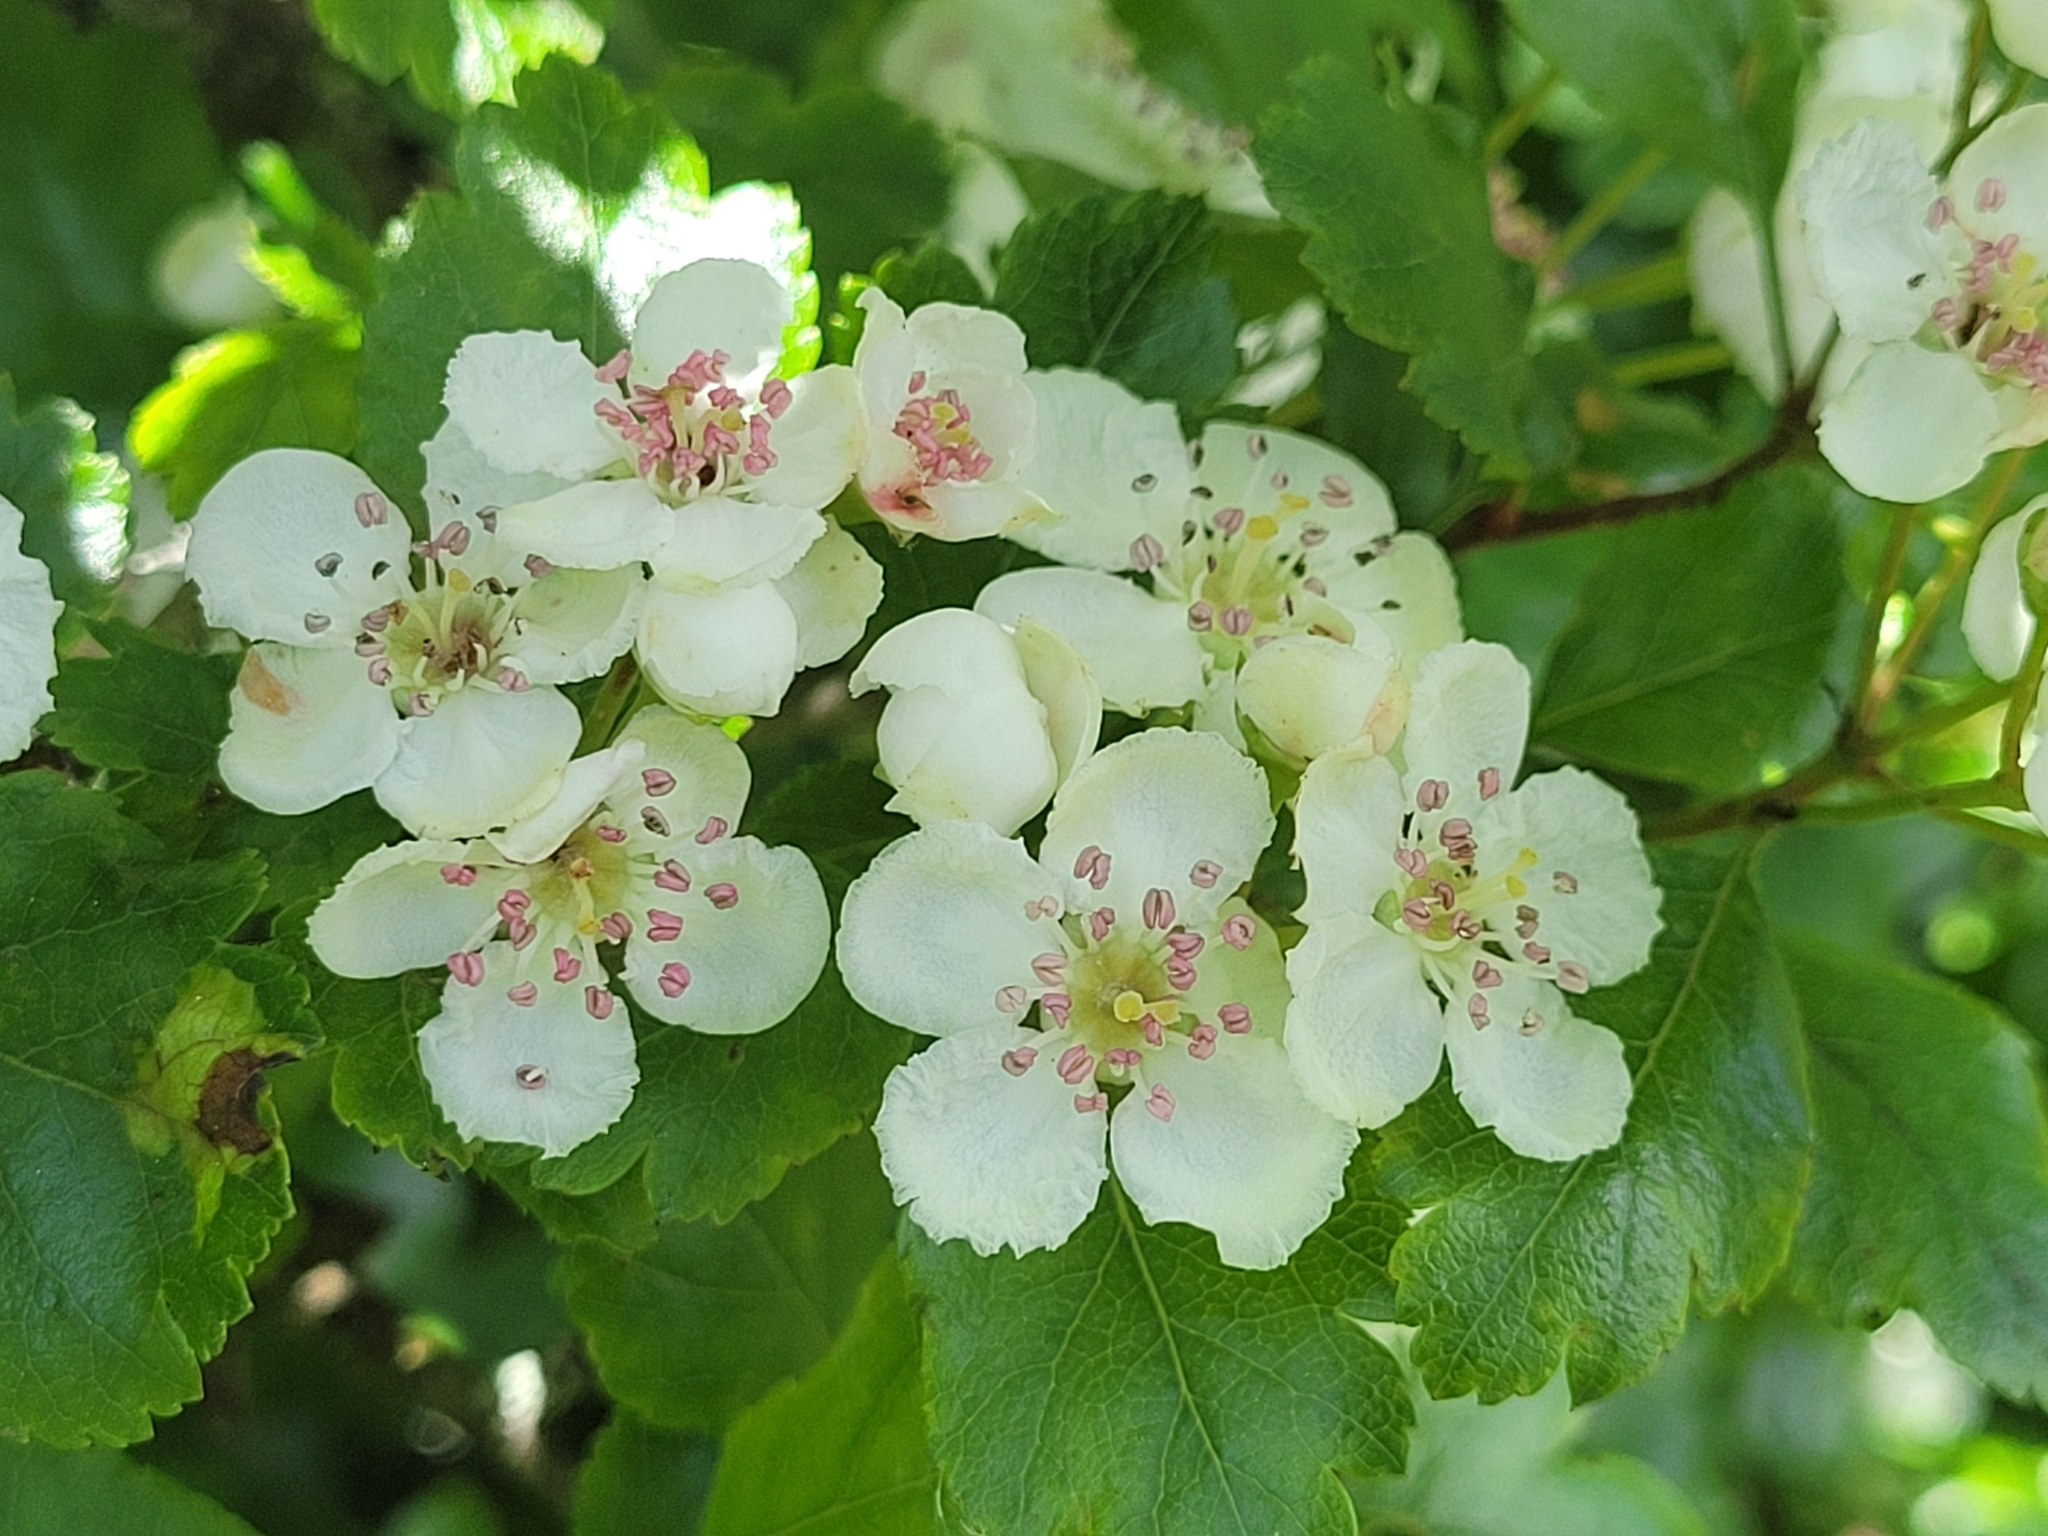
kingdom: Plantae
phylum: Tracheophyta
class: Magnoliopsida
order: Rosales
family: Rosaceae
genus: Crataegus
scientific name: Crataegus laevigata
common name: Midland hawthorn
